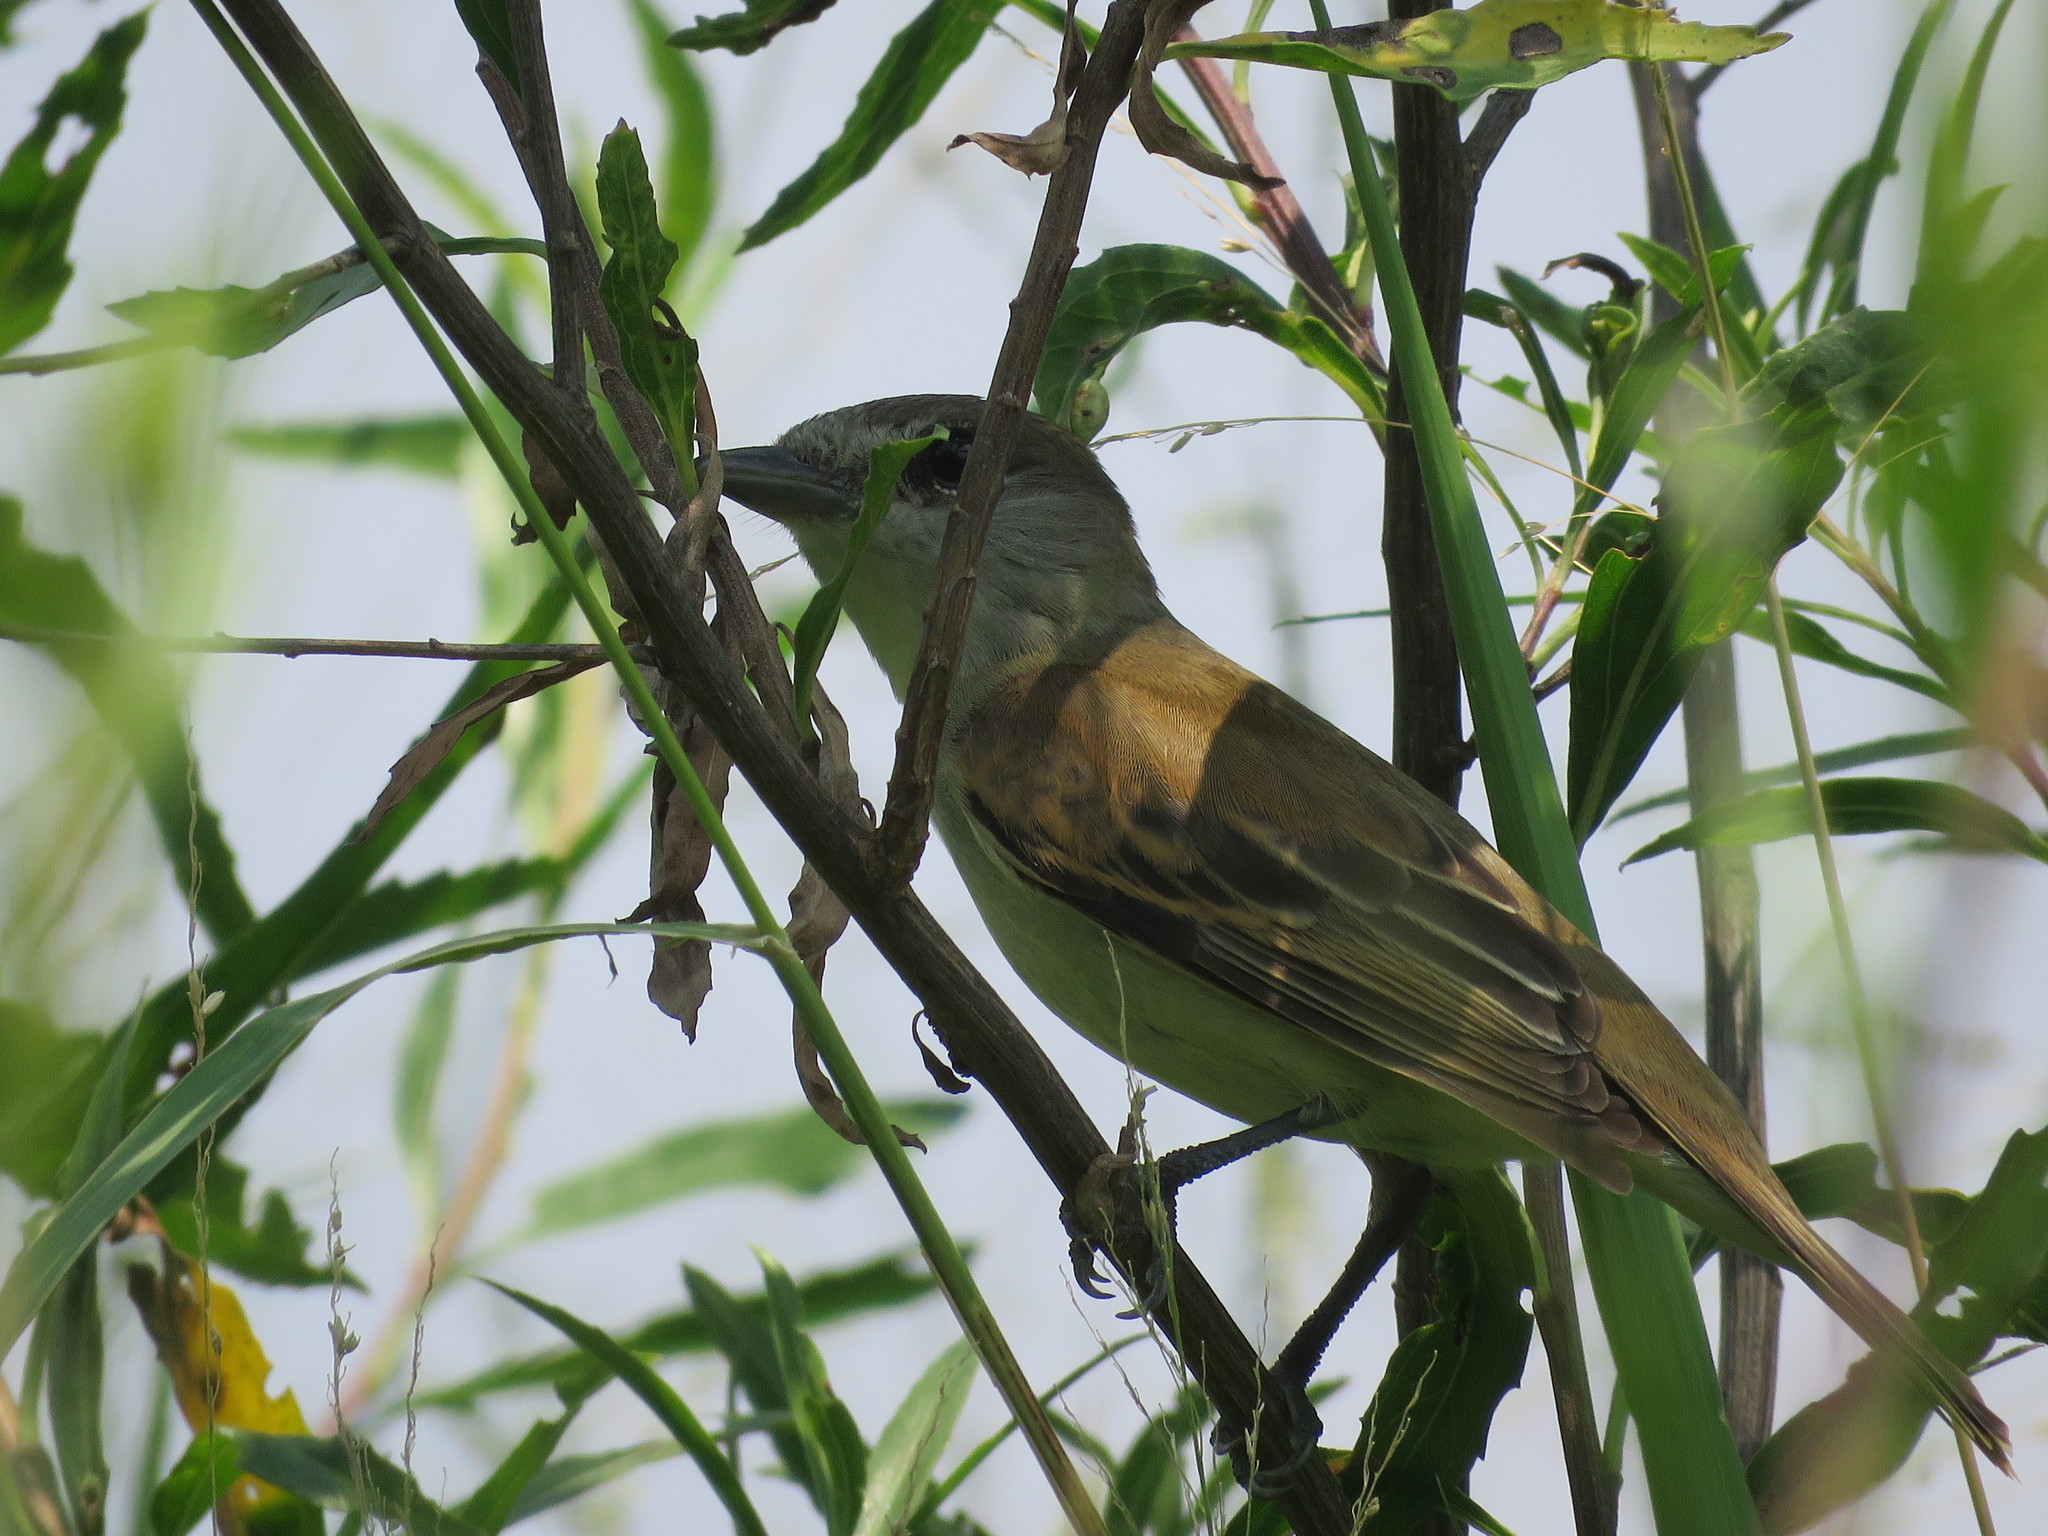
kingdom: Animalia
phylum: Chordata
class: Aves
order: Passeriformes
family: Cotingidae
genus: Pachyramphus
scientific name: Pachyramphus polychopterus
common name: White-winged becard
